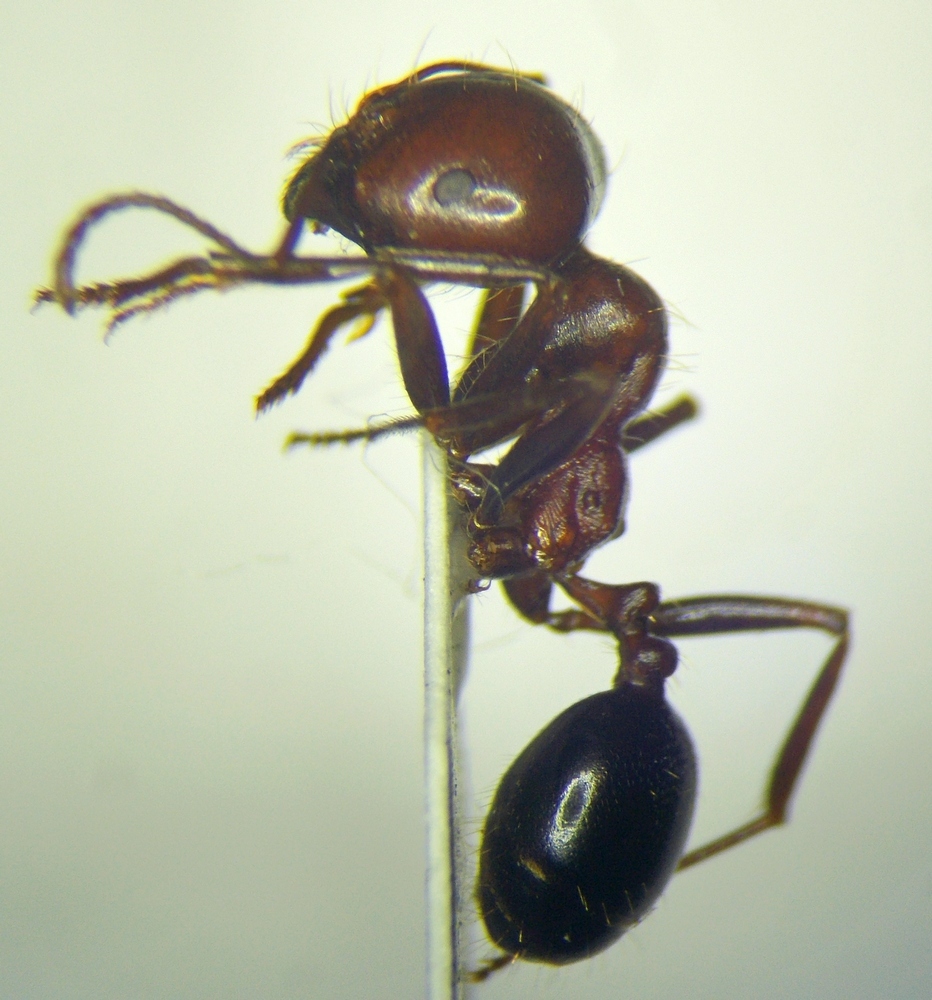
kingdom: Animalia
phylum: Arthropoda
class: Insecta
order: Hymenoptera
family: Formicidae
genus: Messor
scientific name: Messor semirufus
